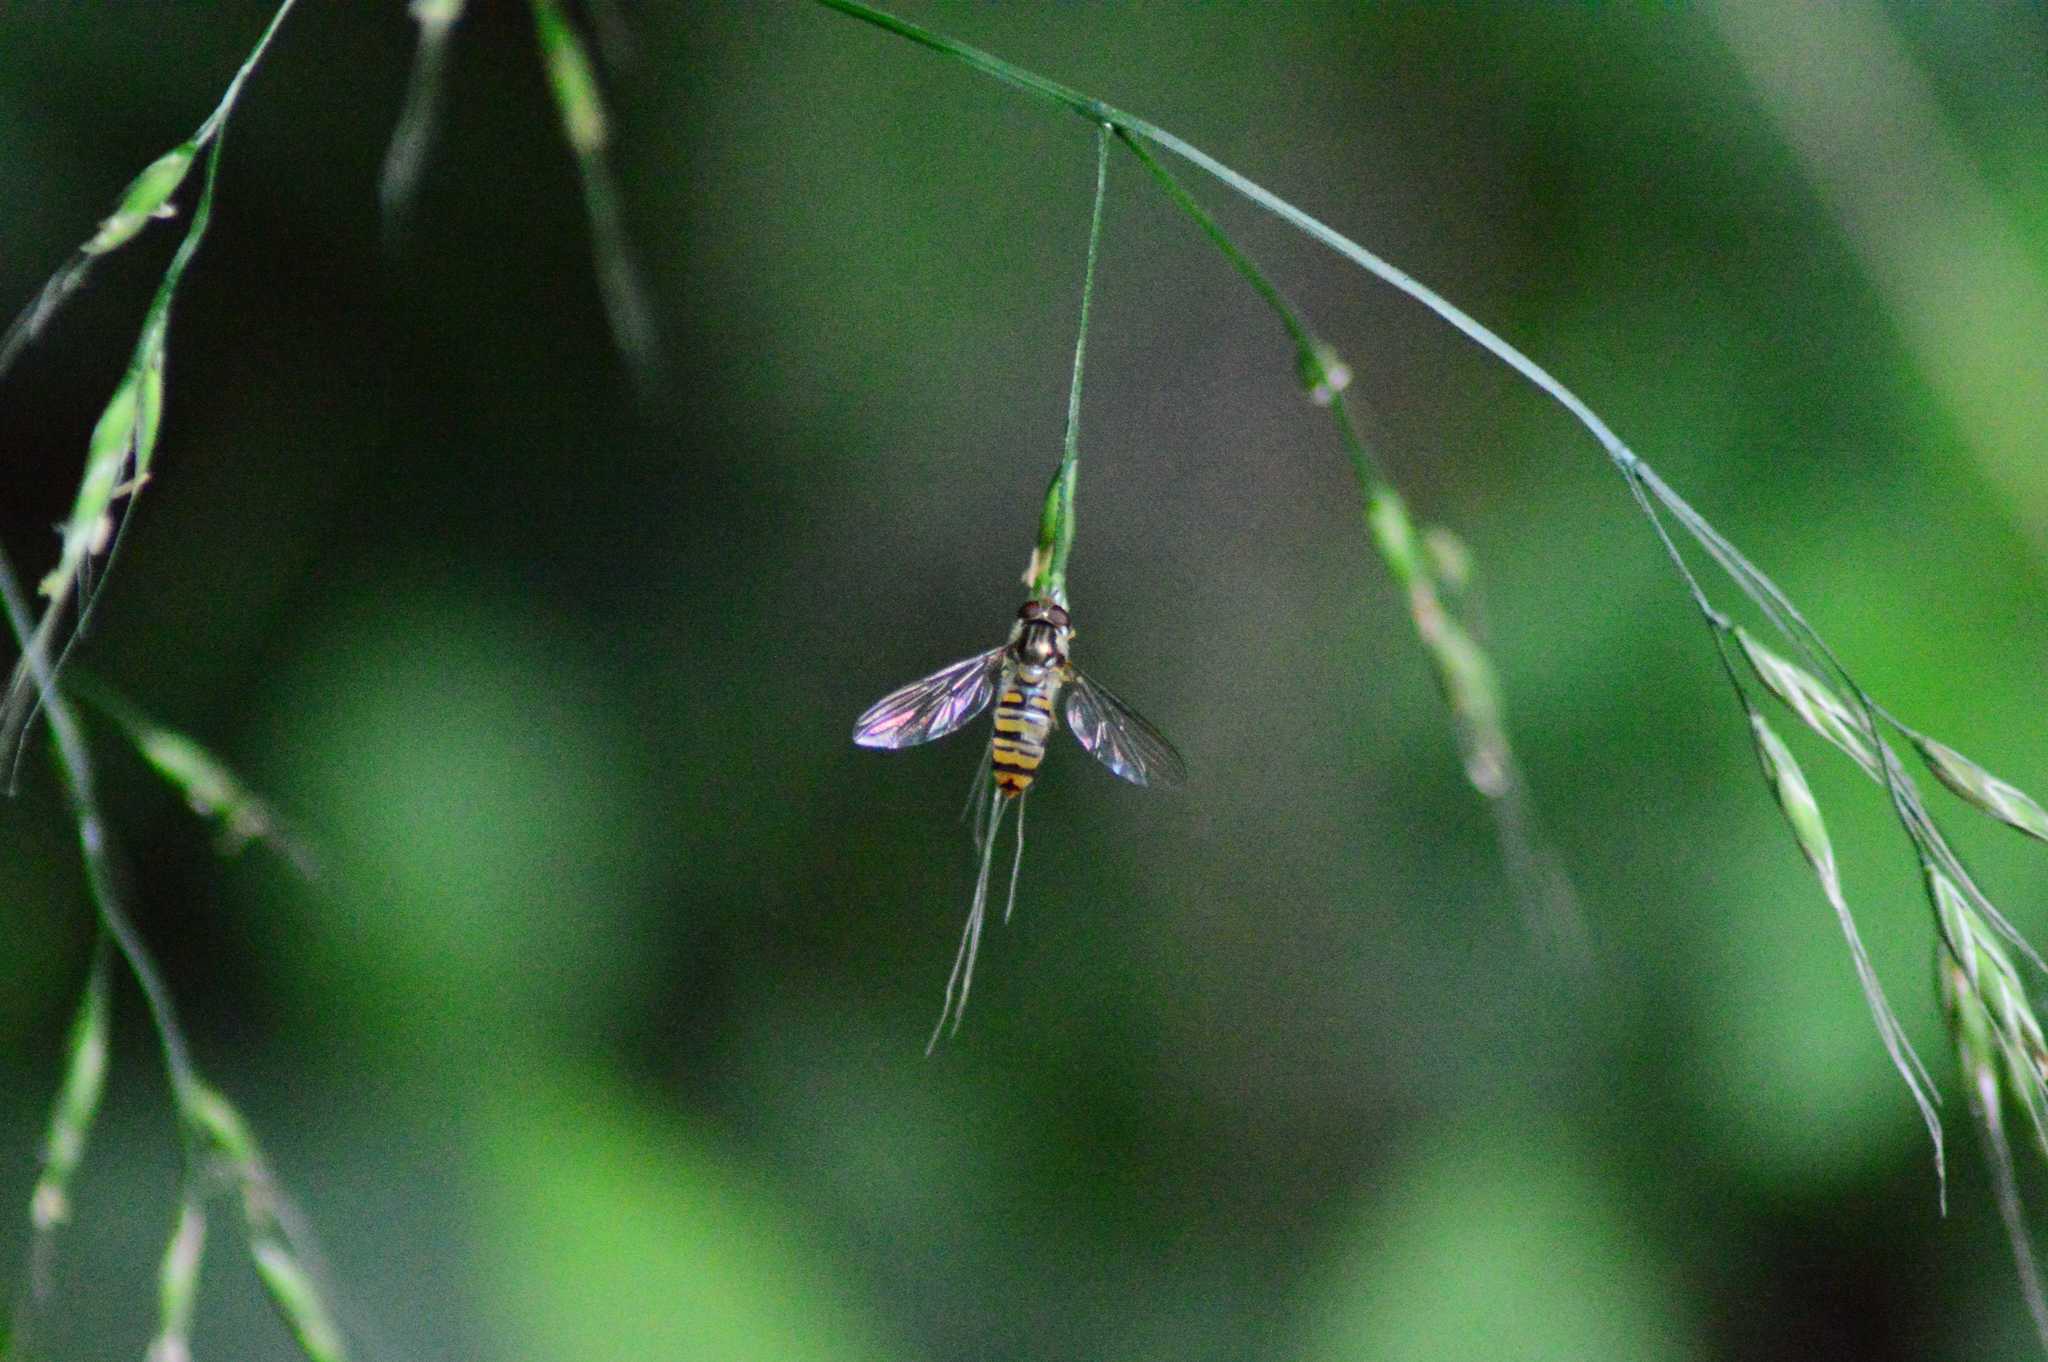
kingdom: Animalia
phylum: Arthropoda
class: Insecta
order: Diptera
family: Syrphidae
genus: Episyrphus
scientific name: Episyrphus balteatus
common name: Marmalade hoverfly
